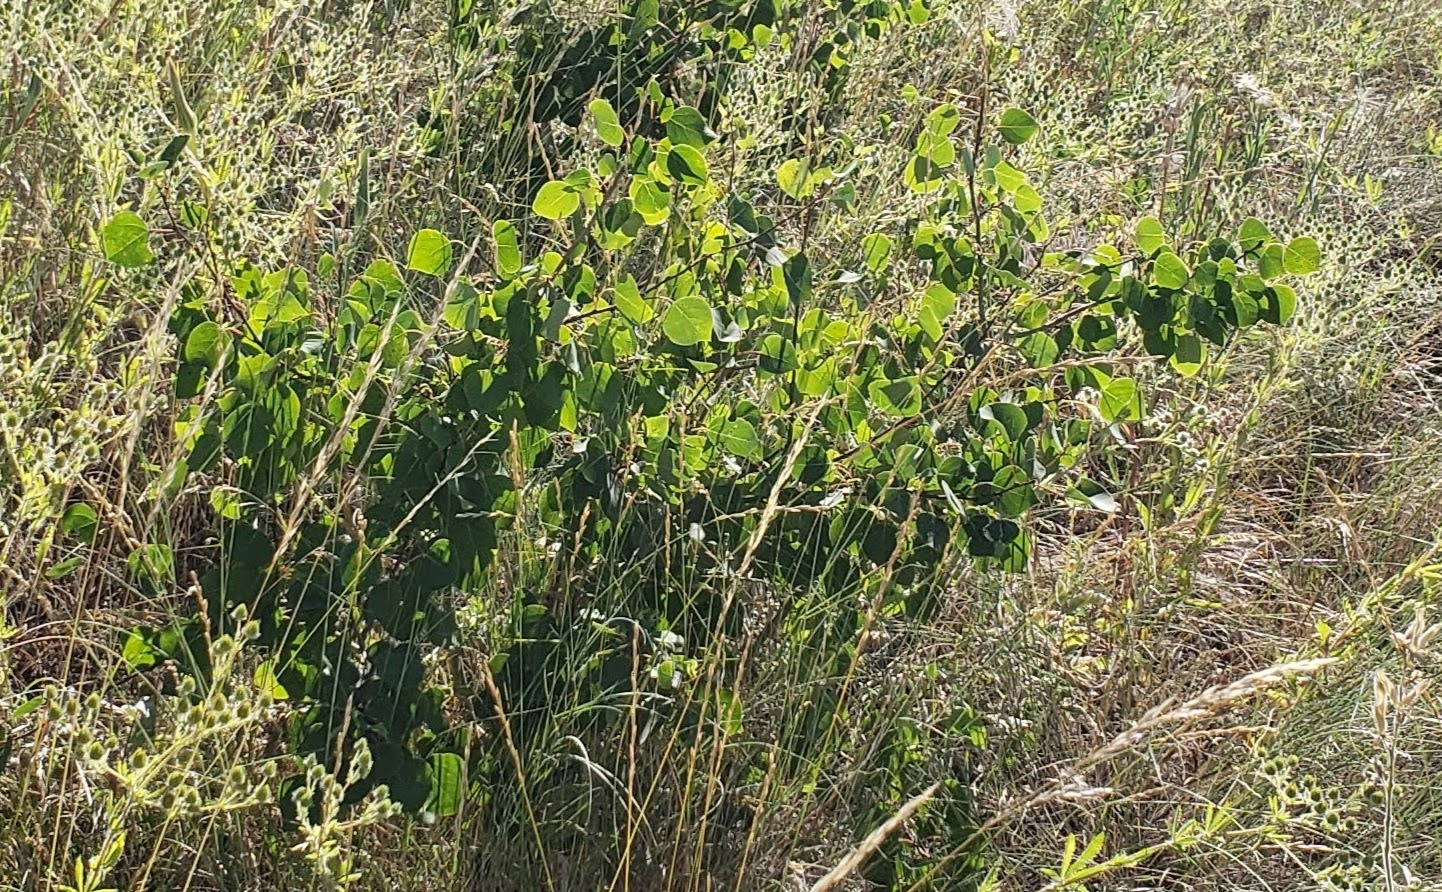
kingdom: Plantae
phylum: Tracheophyta
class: Magnoliopsida
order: Malpighiales
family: Salicaceae
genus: Populus
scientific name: Populus tremuloides
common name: Quaking aspen
